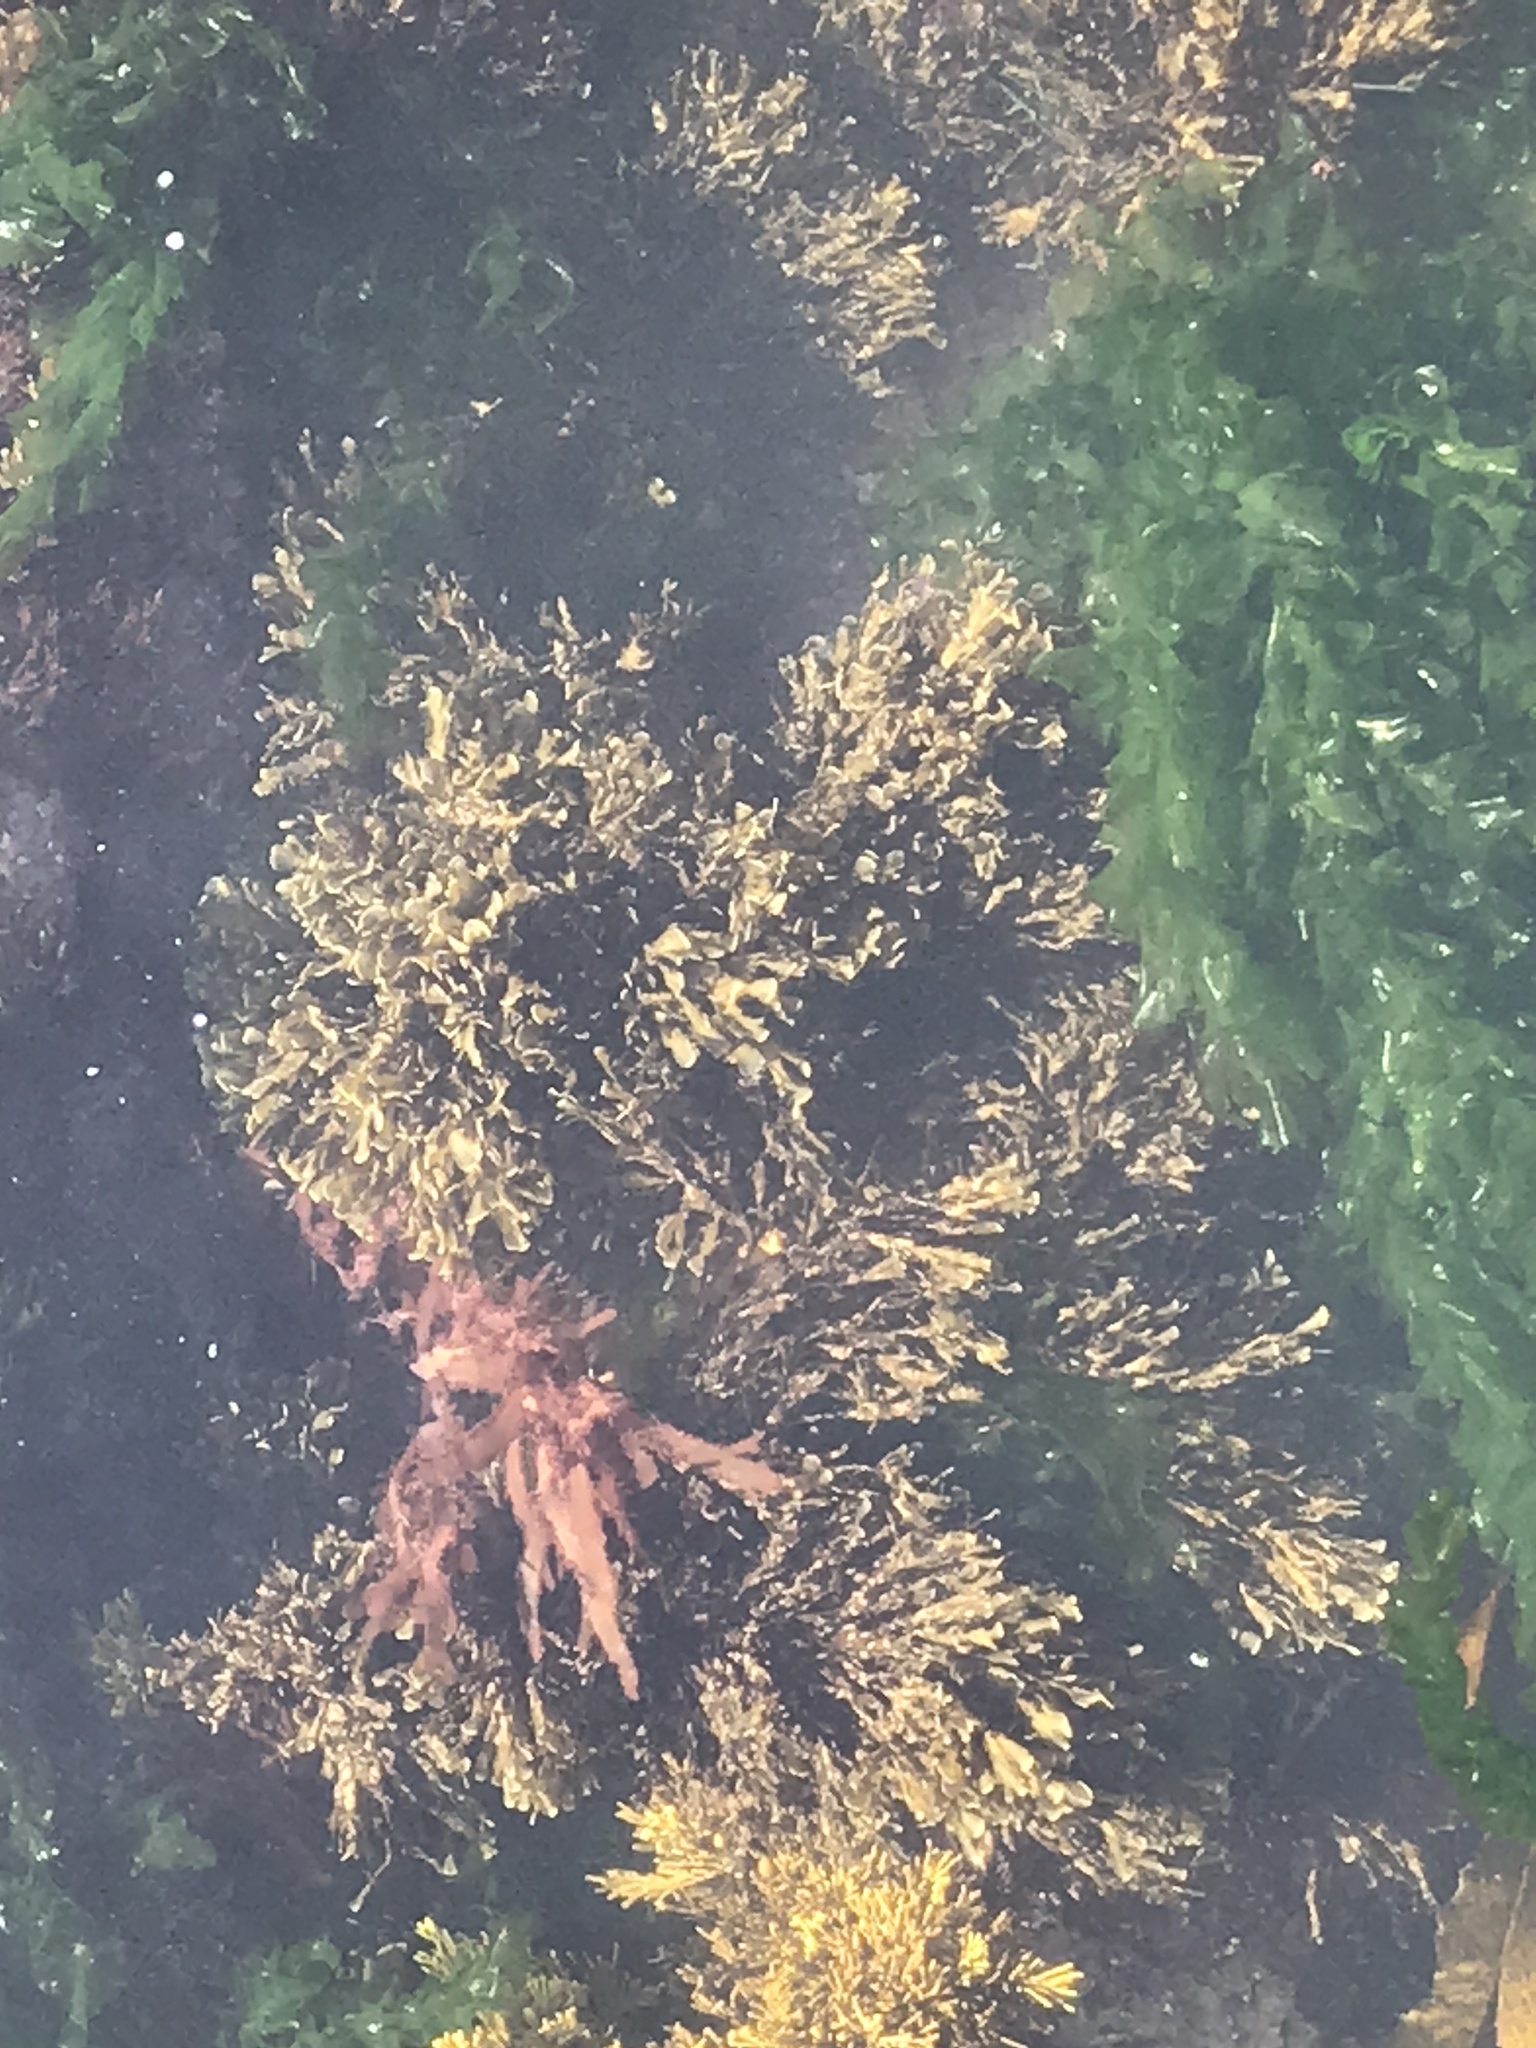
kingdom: Chromista
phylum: Ochrophyta
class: Phaeophyceae
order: Dictyotales
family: Dictyotaceae
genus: Zonaria
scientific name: Zonaria turneriana
